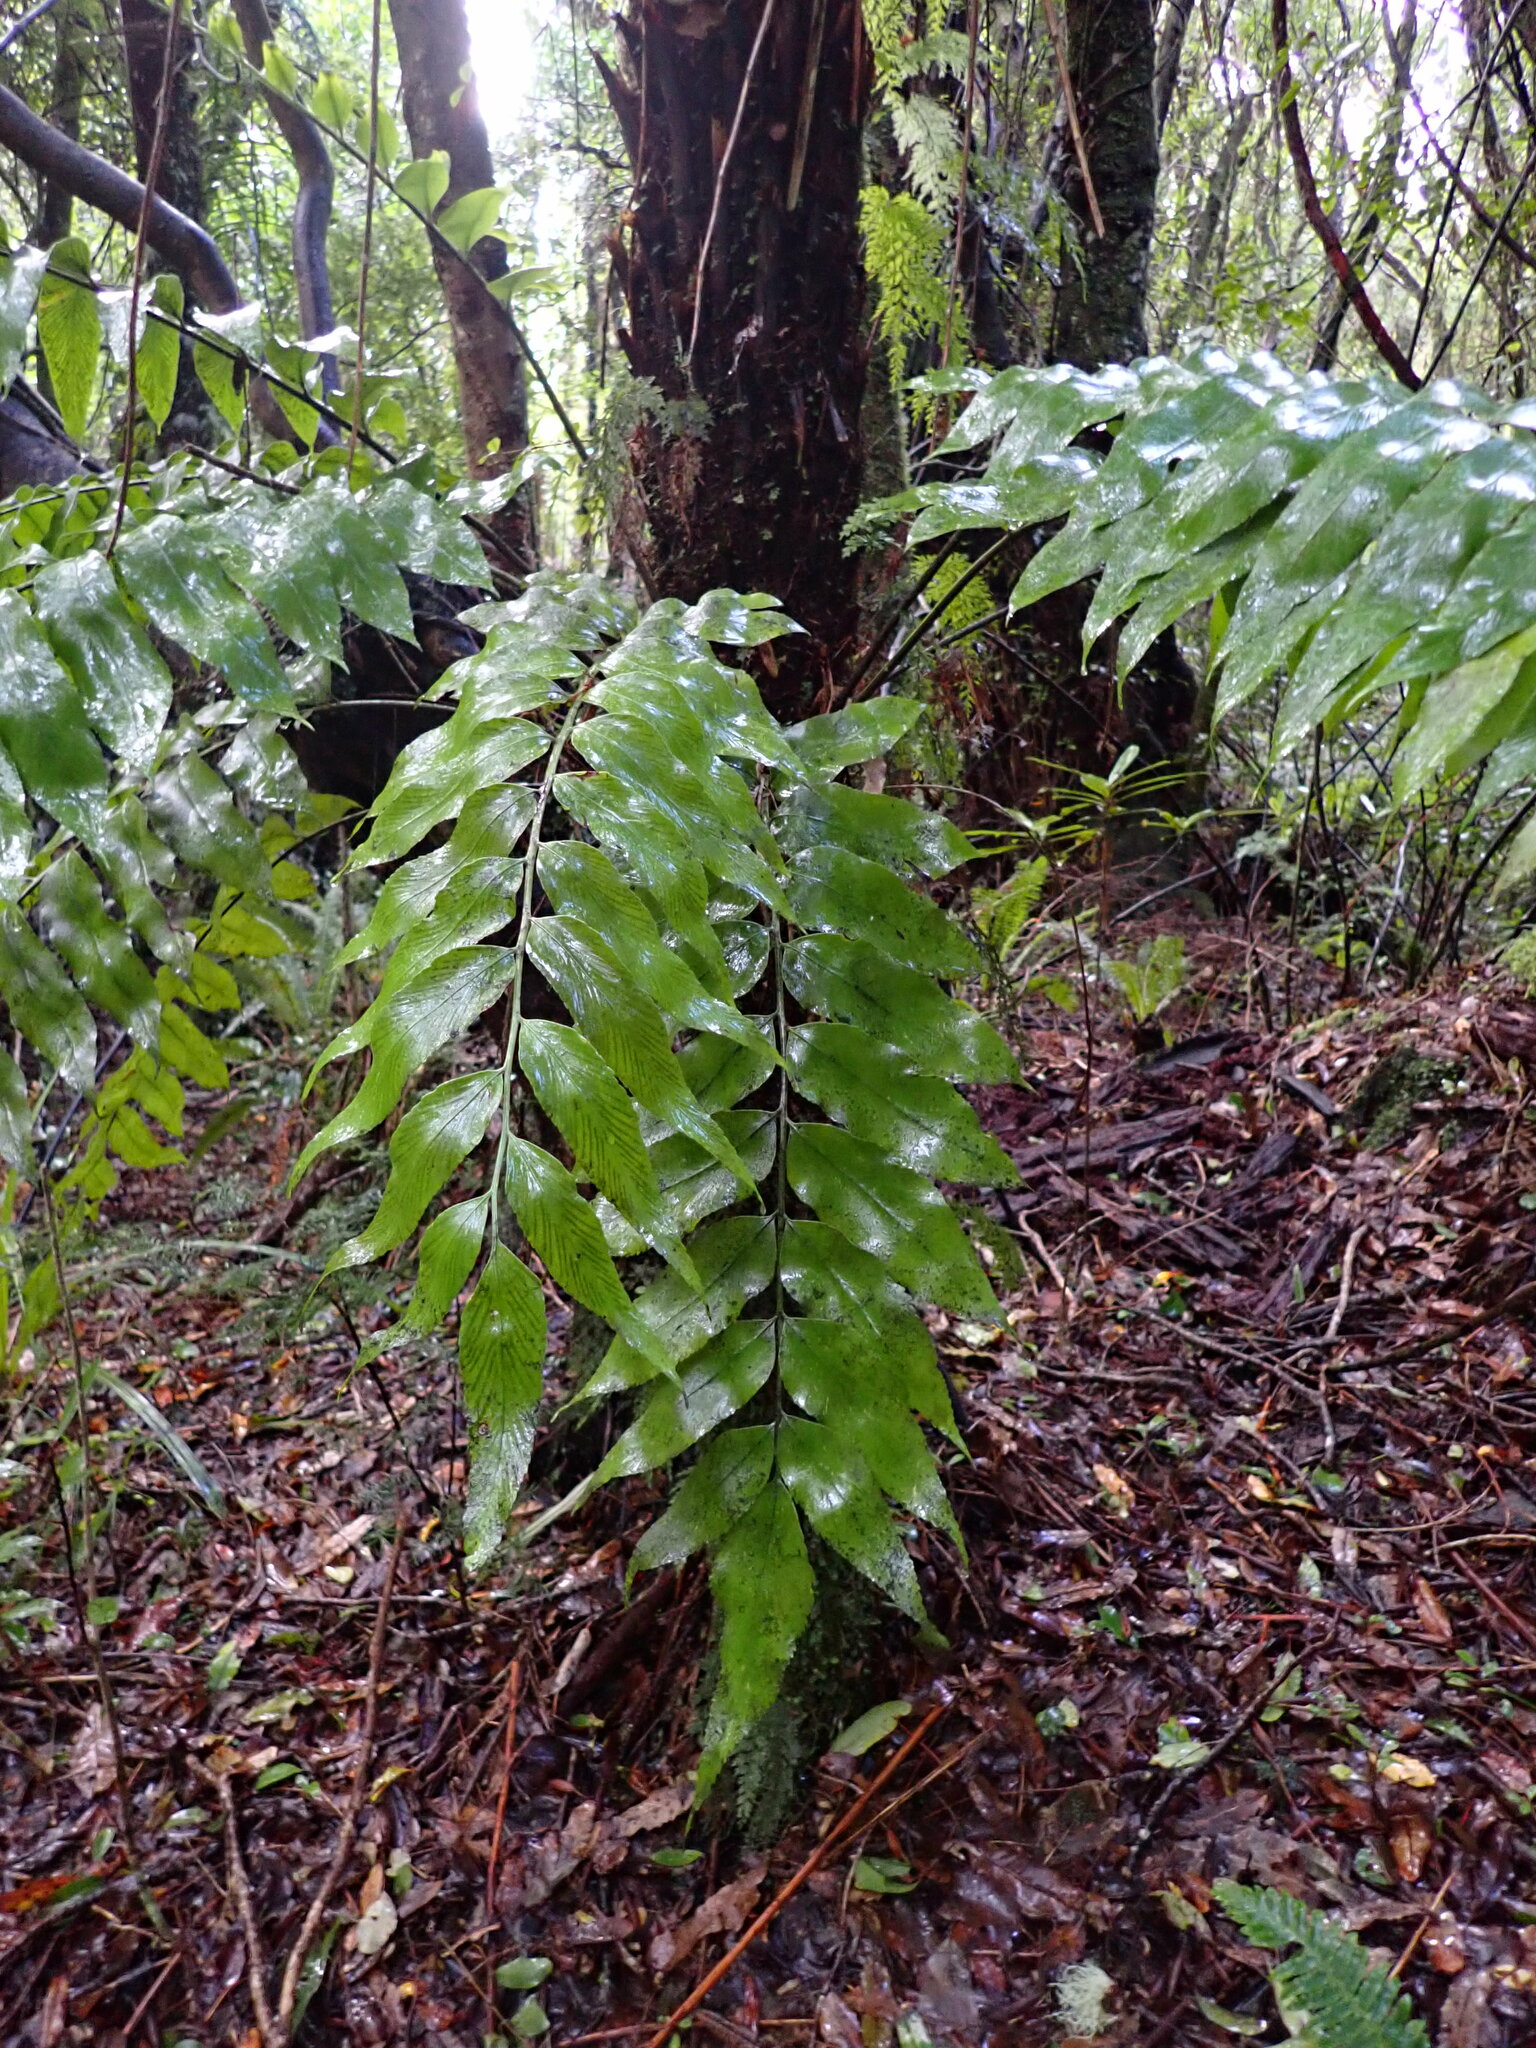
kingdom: Plantae
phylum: Tracheophyta
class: Polypodiopsida
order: Polypodiales
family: Aspleniaceae
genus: Asplenium
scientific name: Asplenium oblongifolium
